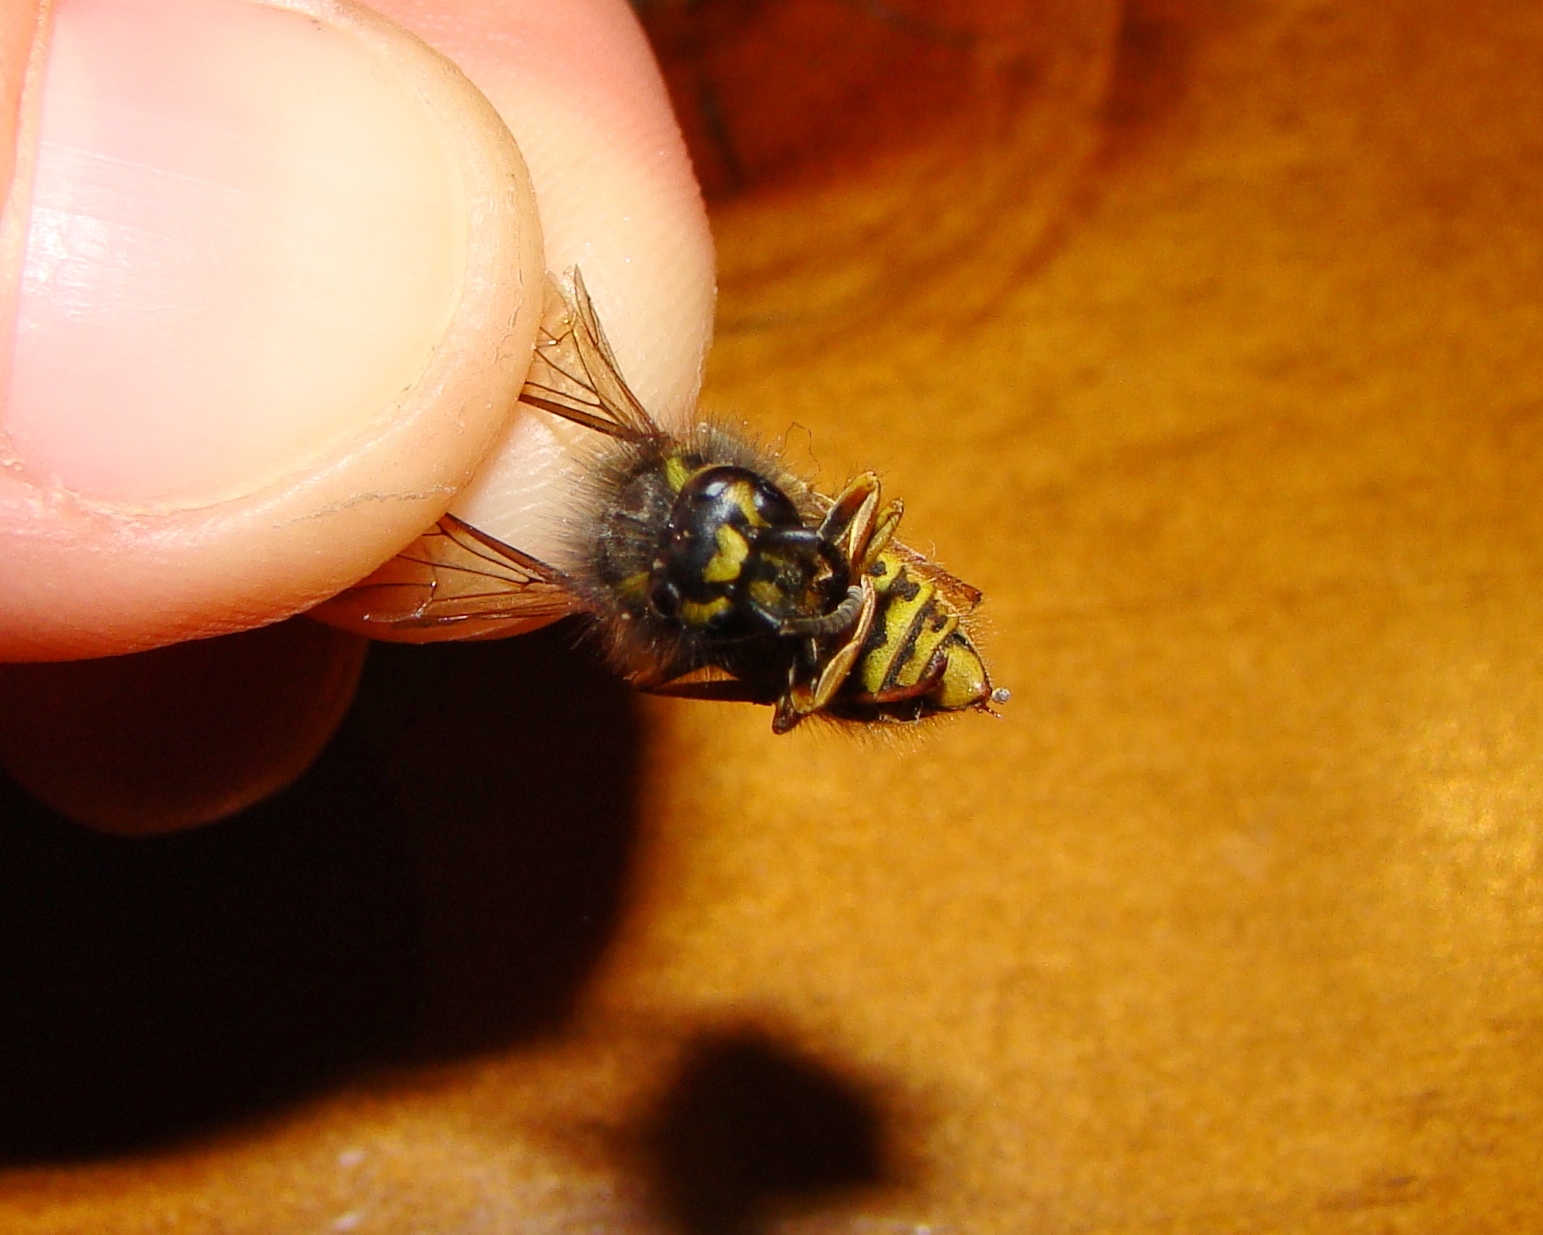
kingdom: Animalia
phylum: Arthropoda
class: Insecta
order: Hymenoptera
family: Vespidae
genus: Vespula
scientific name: Vespula vulgaris
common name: Common wasp
